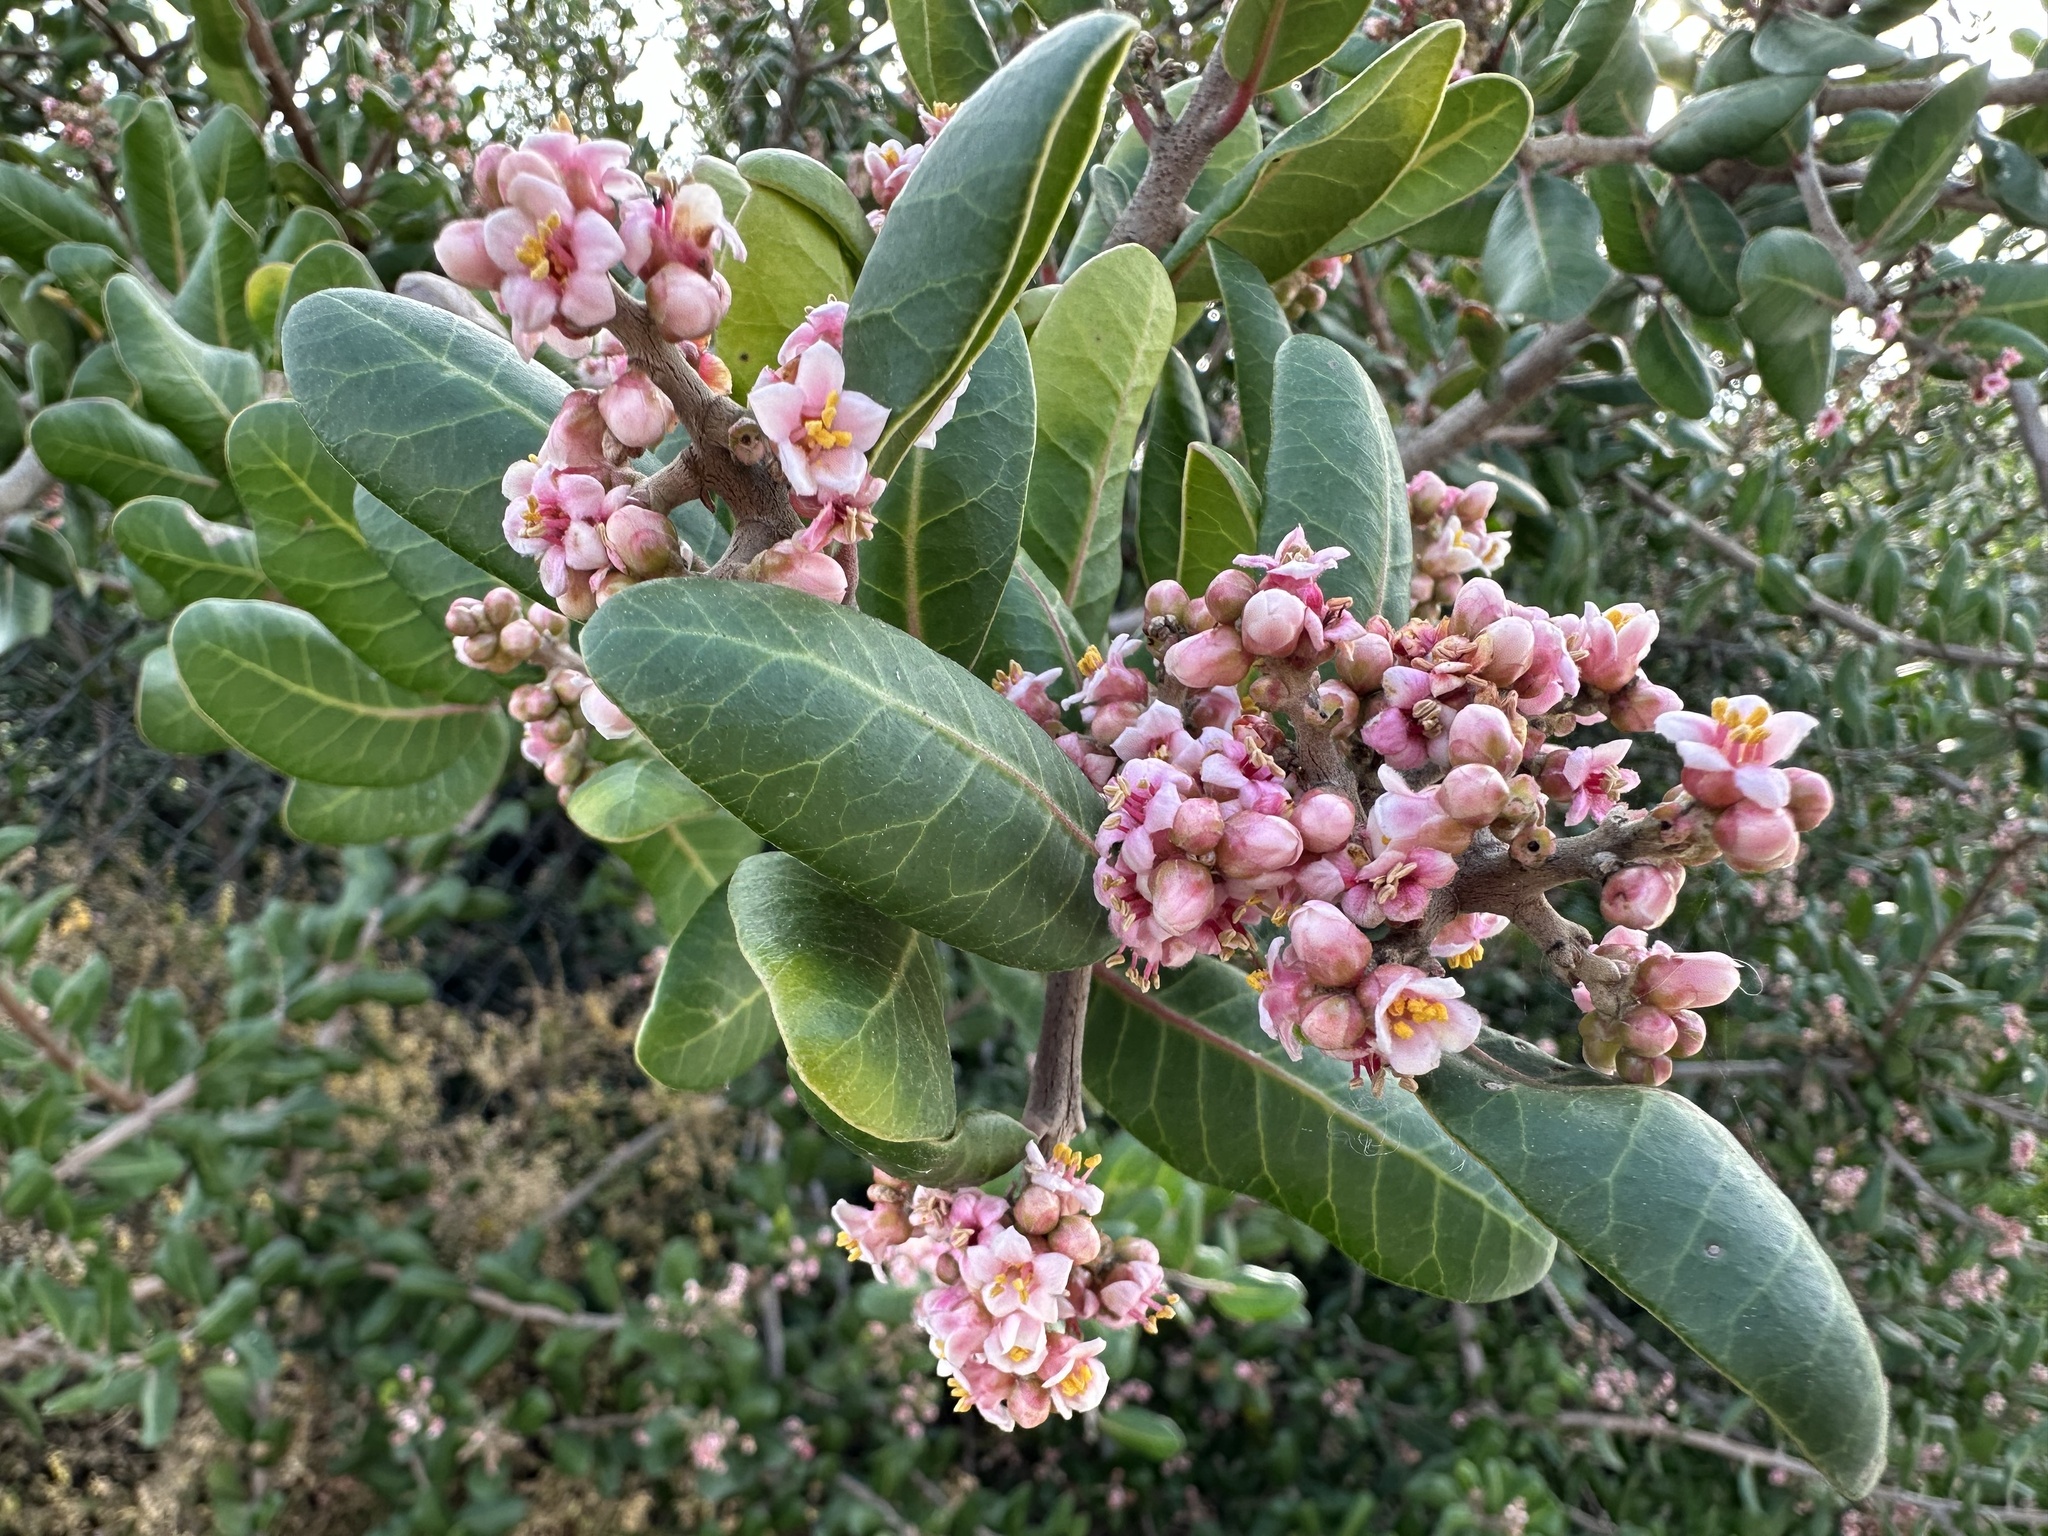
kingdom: Plantae
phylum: Tracheophyta
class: Magnoliopsida
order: Sapindales
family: Anacardiaceae
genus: Rhus
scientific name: Rhus integrifolia
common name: Lemonade sumac
